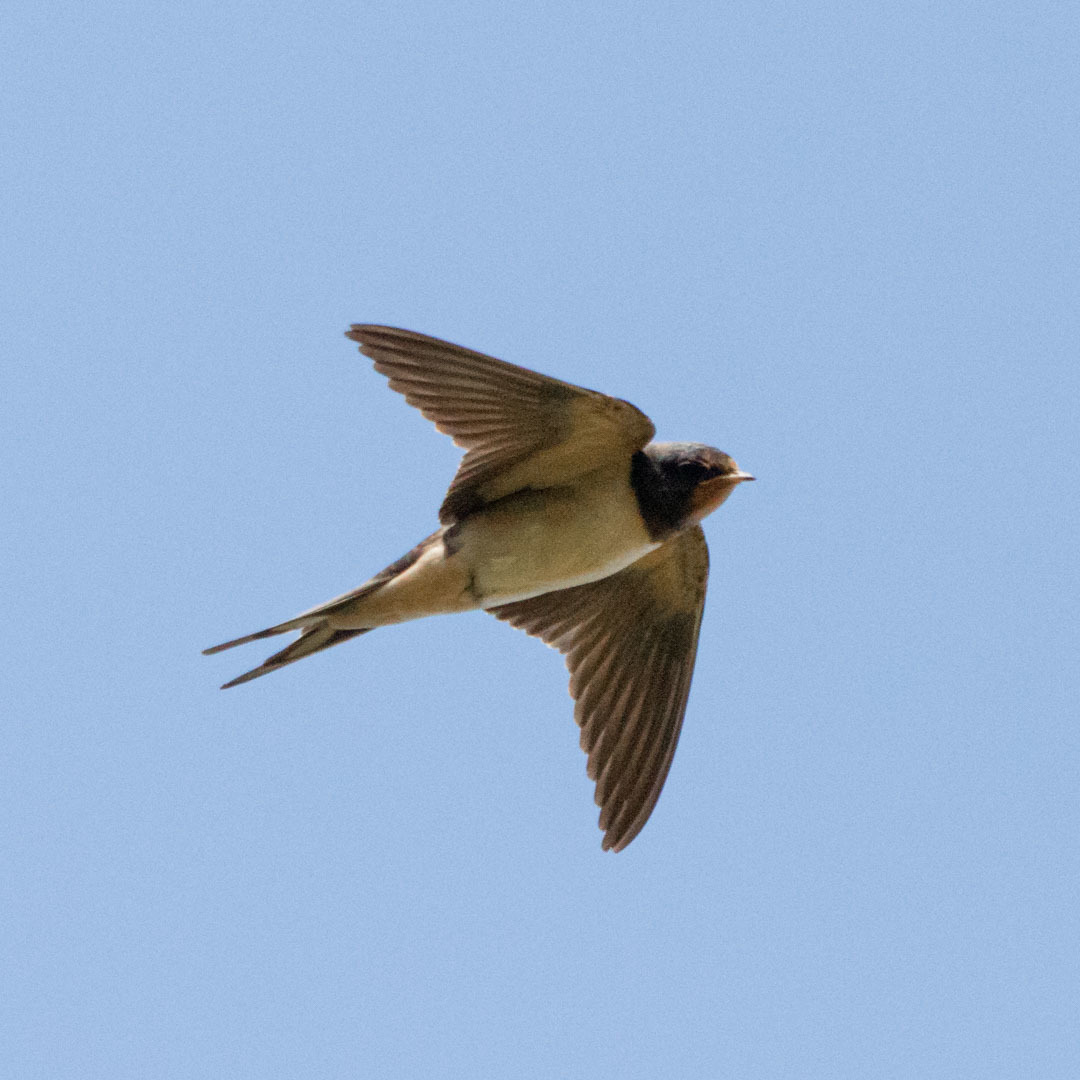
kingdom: Animalia
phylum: Chordata
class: Aves
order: Passeriformes
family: Hirundinidae
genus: Hirundo
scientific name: Hirundo rustica
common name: Barn swallow
